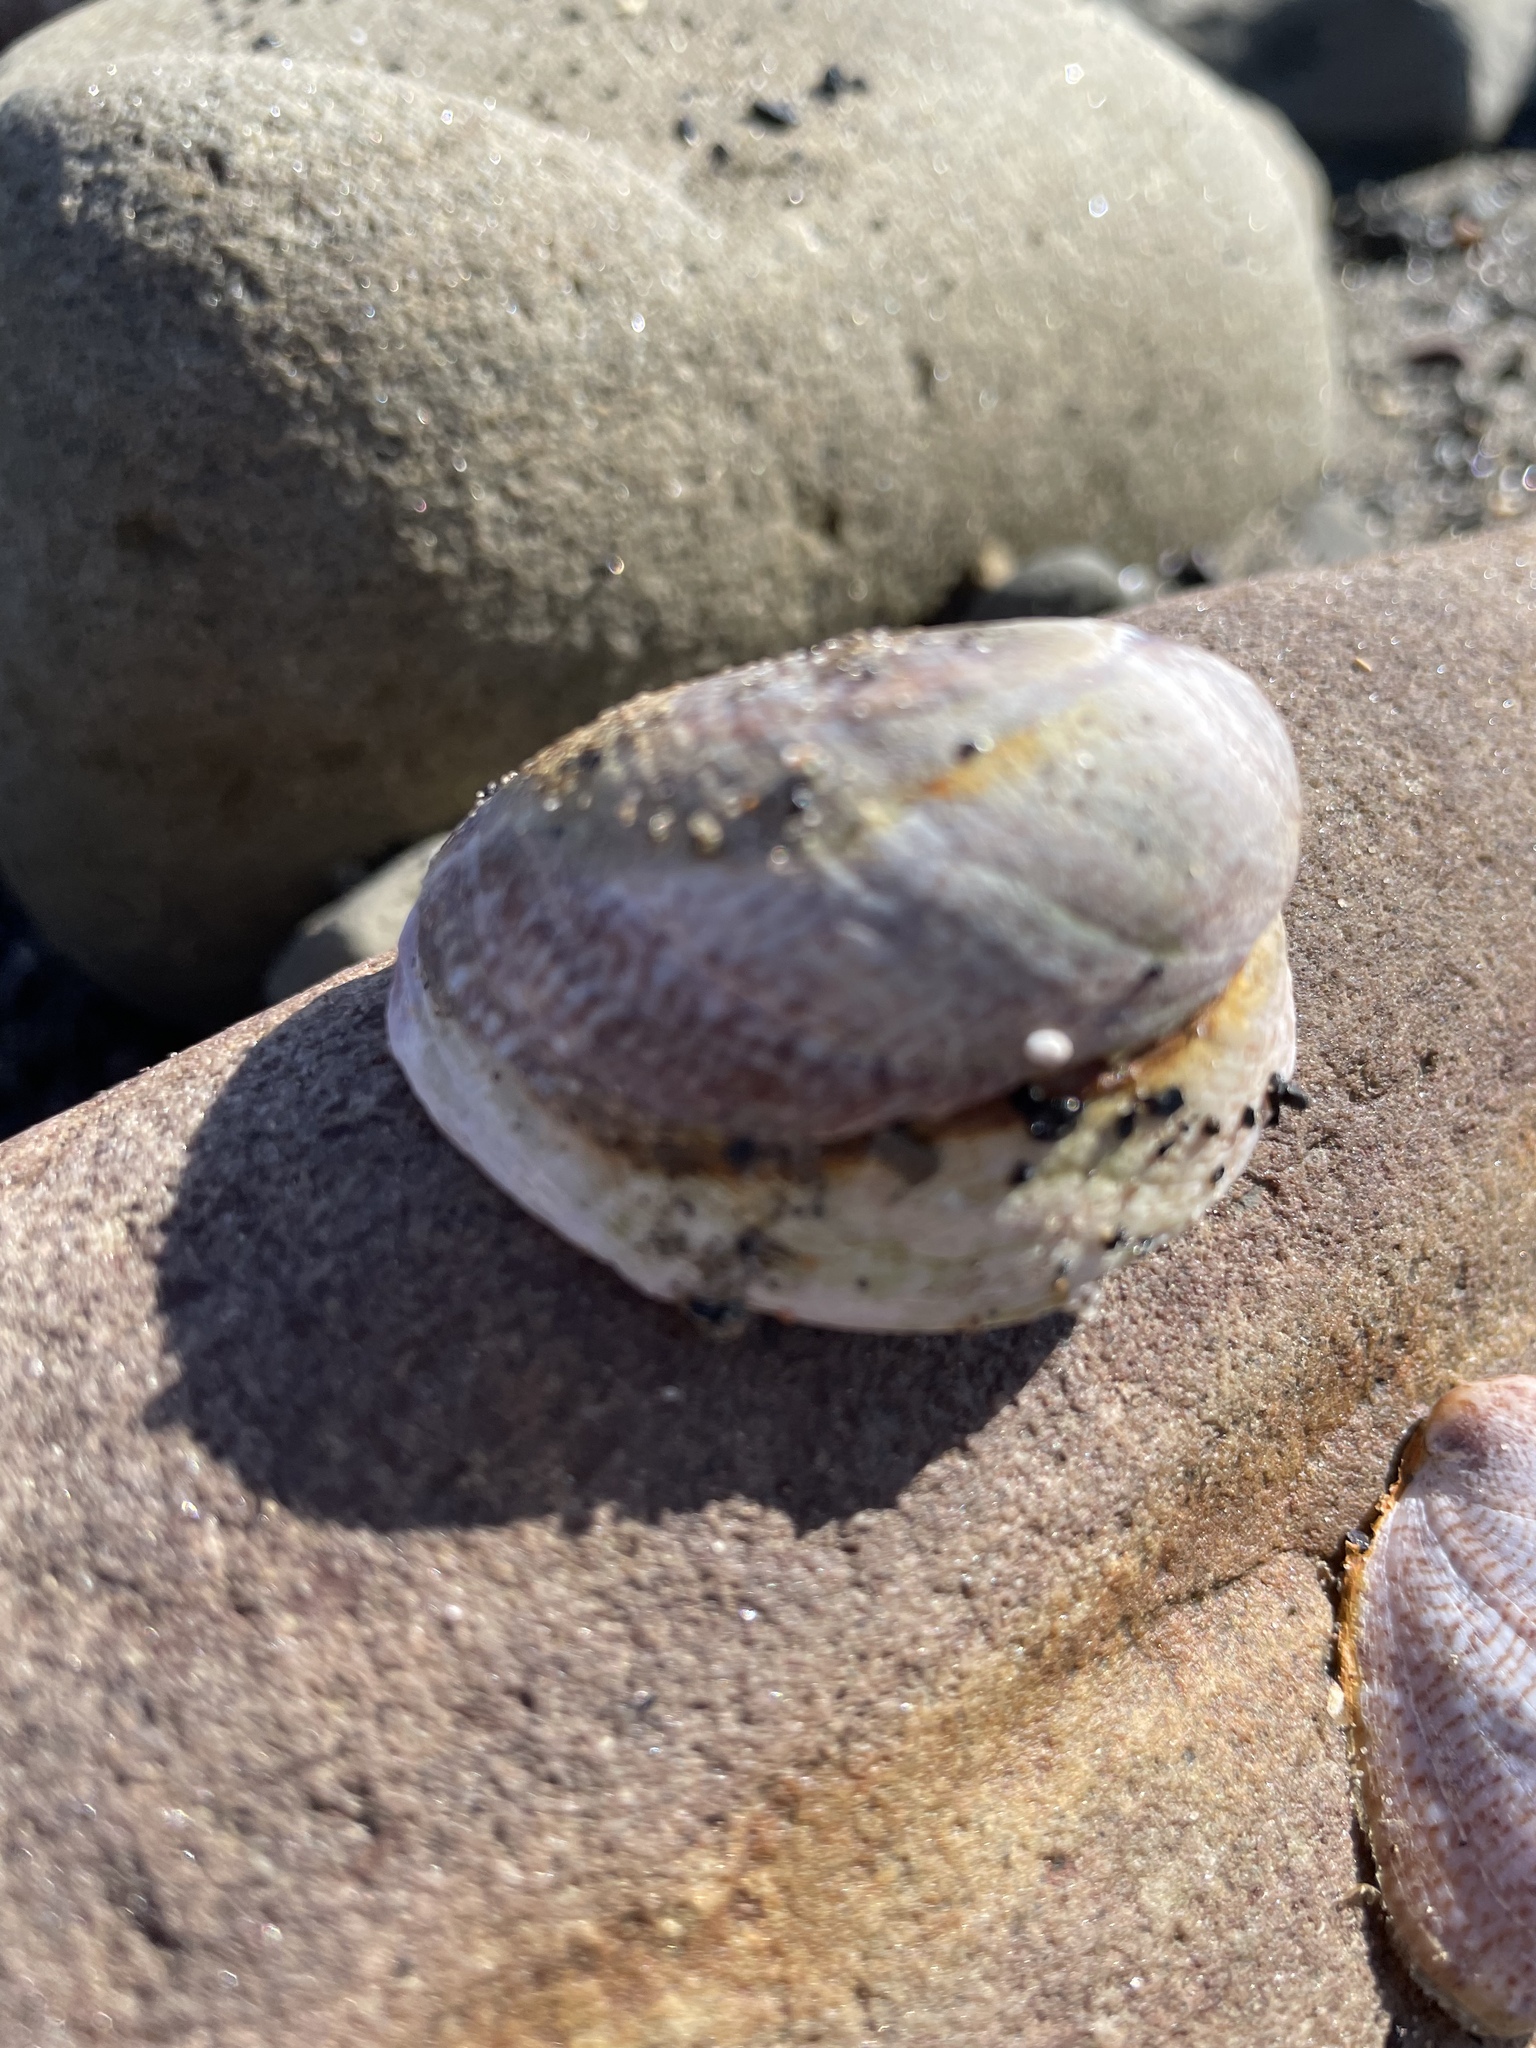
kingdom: Animalia
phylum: Mollusca
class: Gastropoda
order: Littorinimorpha
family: Calyptraeidae
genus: Crepidula
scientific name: Crepidula fornicata
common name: Slipper limpet
